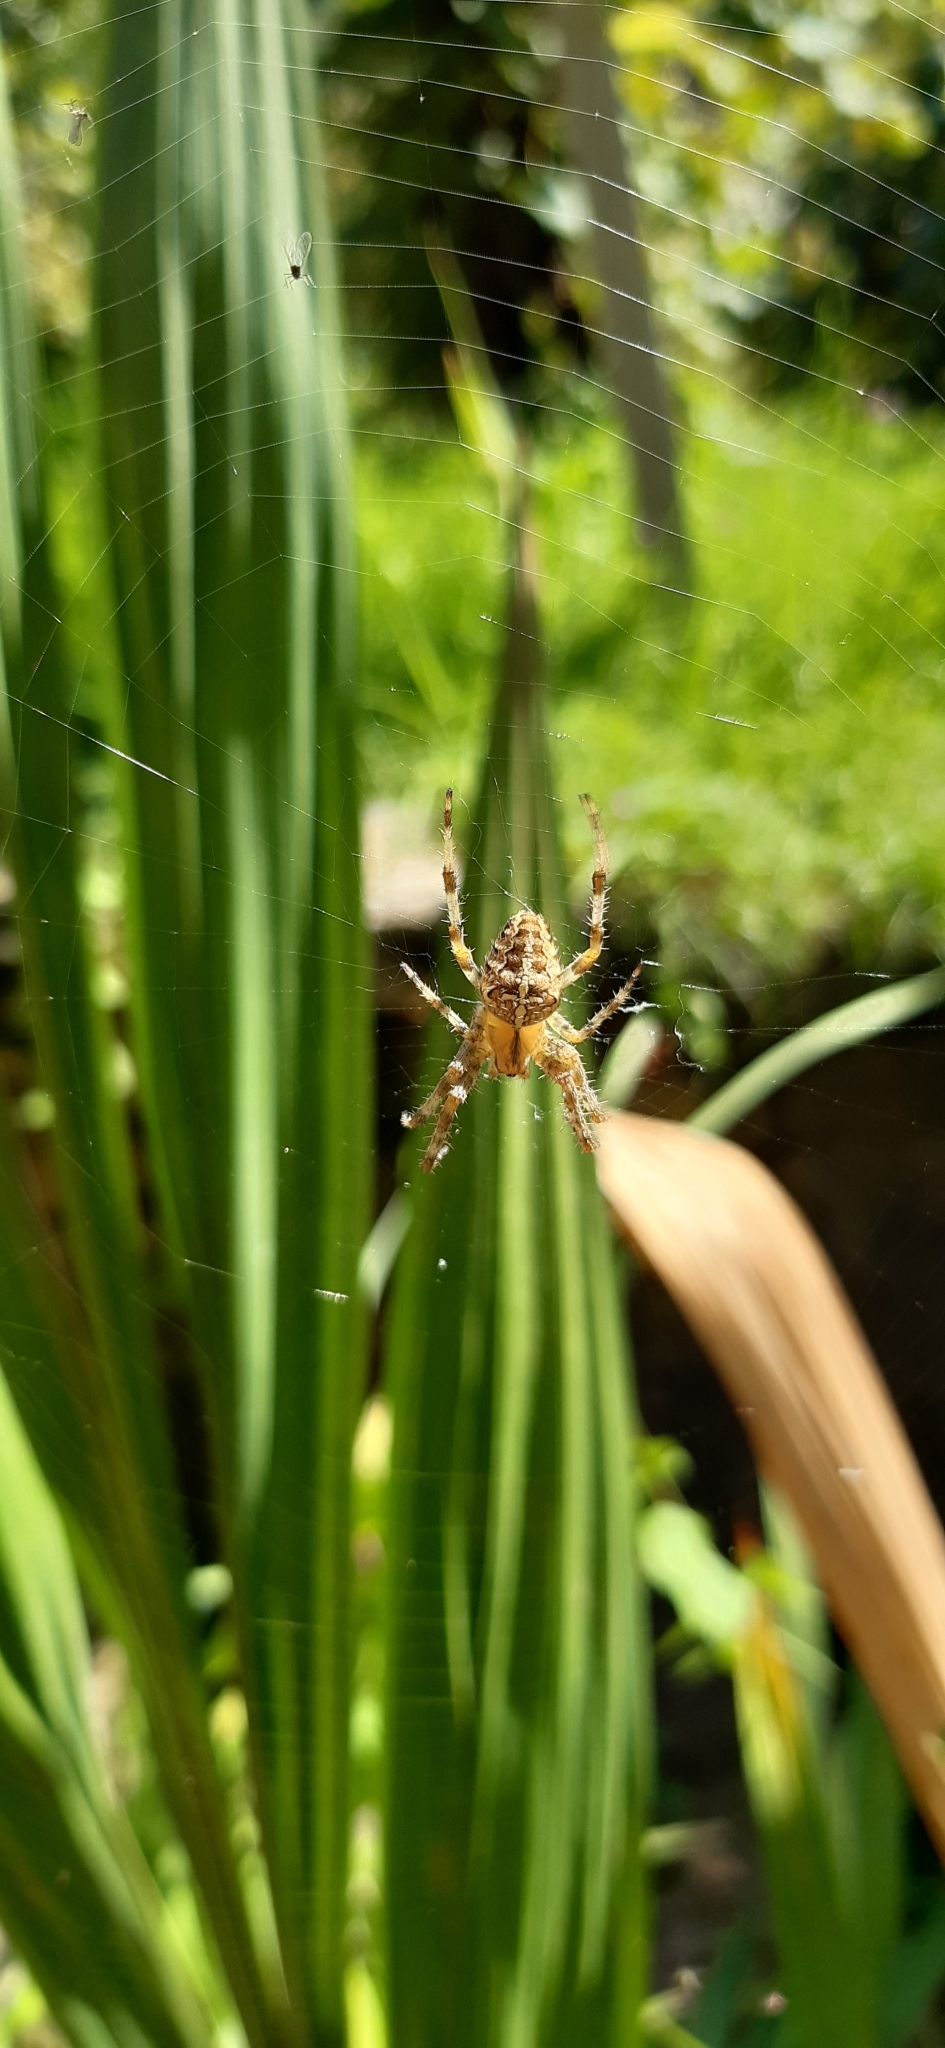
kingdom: Animalia
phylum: Arthropoda
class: Arachnida
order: Araneae
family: Araneidae
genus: Araneus
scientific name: Araneus diadematus
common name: Cross orbweaver
